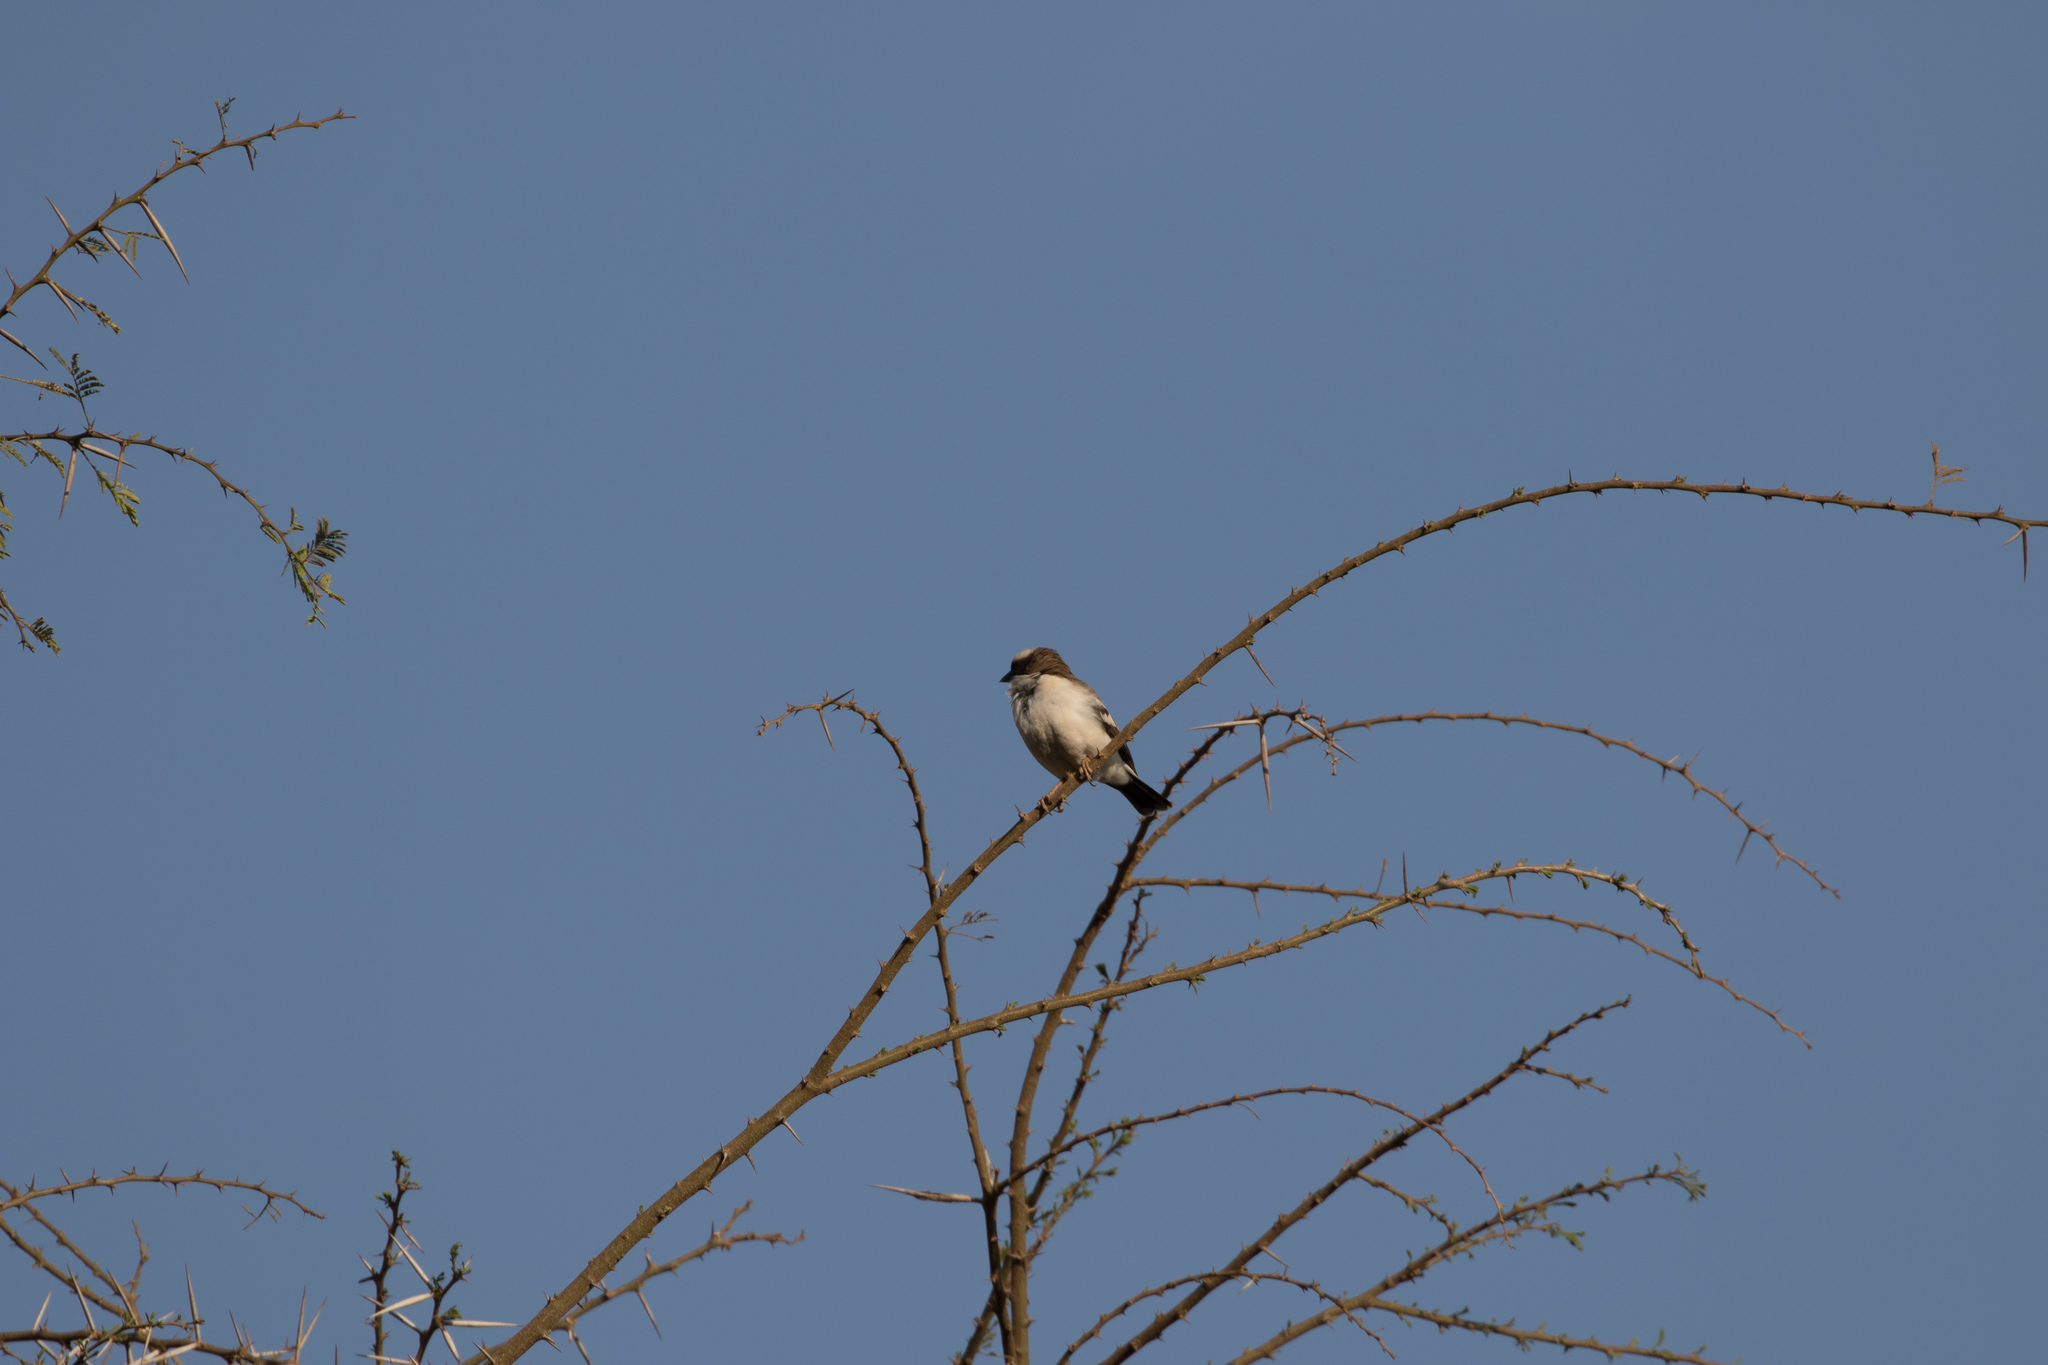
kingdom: Animalia
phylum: Chordata
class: Aves
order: Passeriformes
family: Passeridae
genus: Plocepasser
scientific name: Plocepasser mahali
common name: White-browed sparrow-weaver
